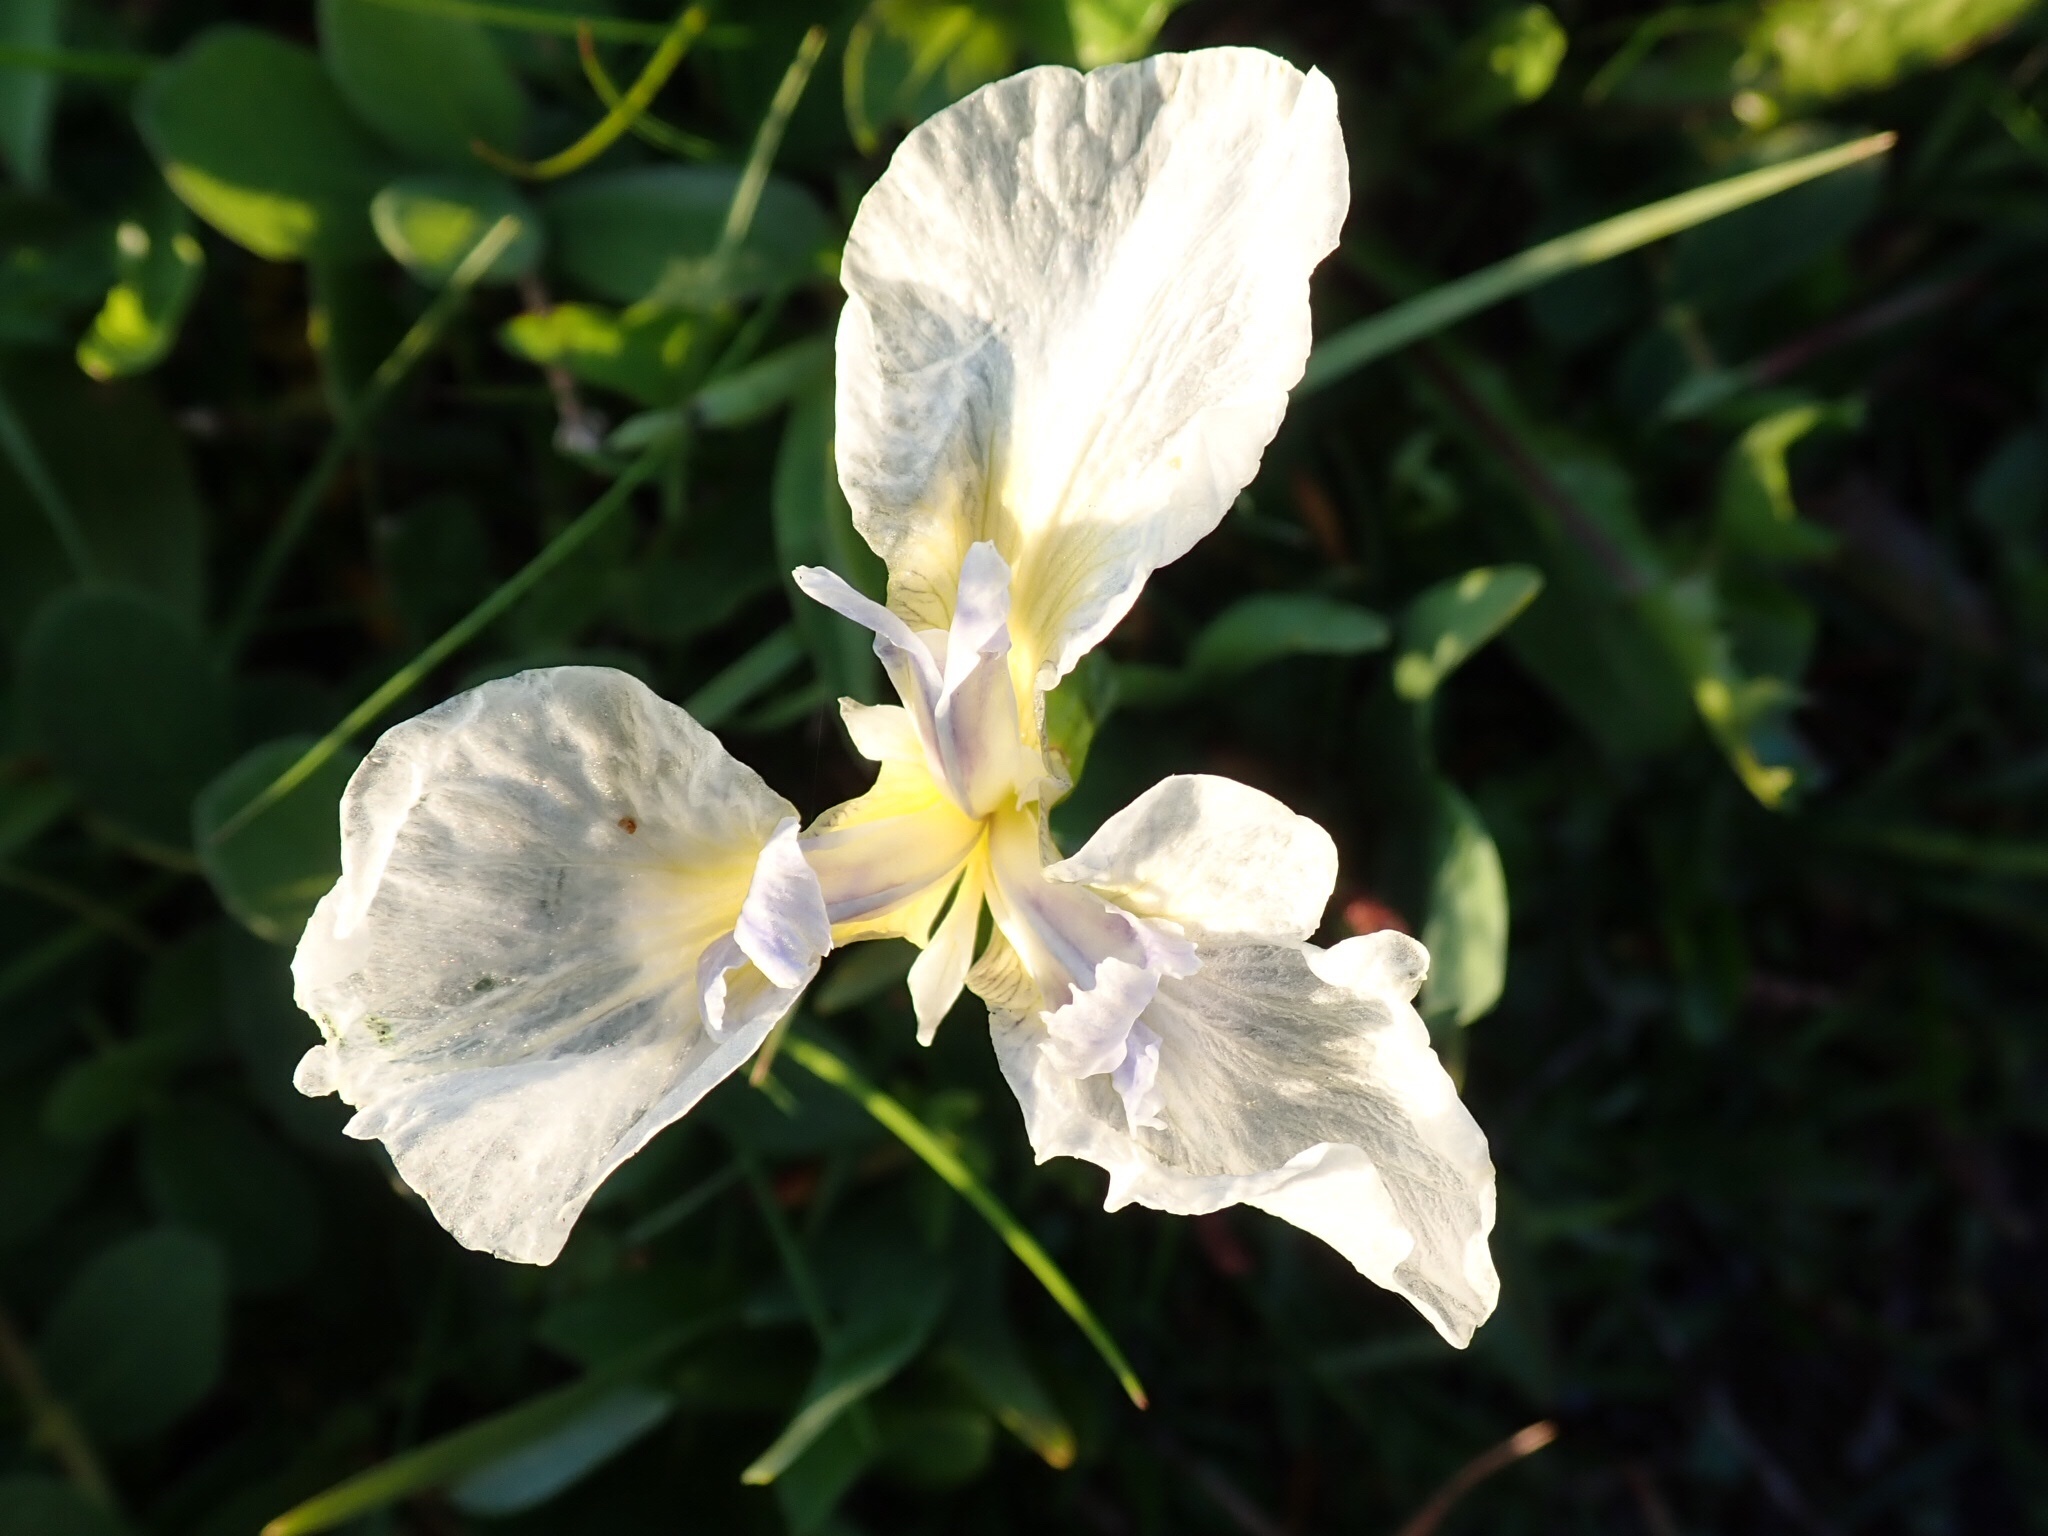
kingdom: Plantae
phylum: Tracheophyta
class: Liliopsida
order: Asparagales
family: Iridaceae
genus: Iris
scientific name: Iris hookeri
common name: Canada beach-head iris
